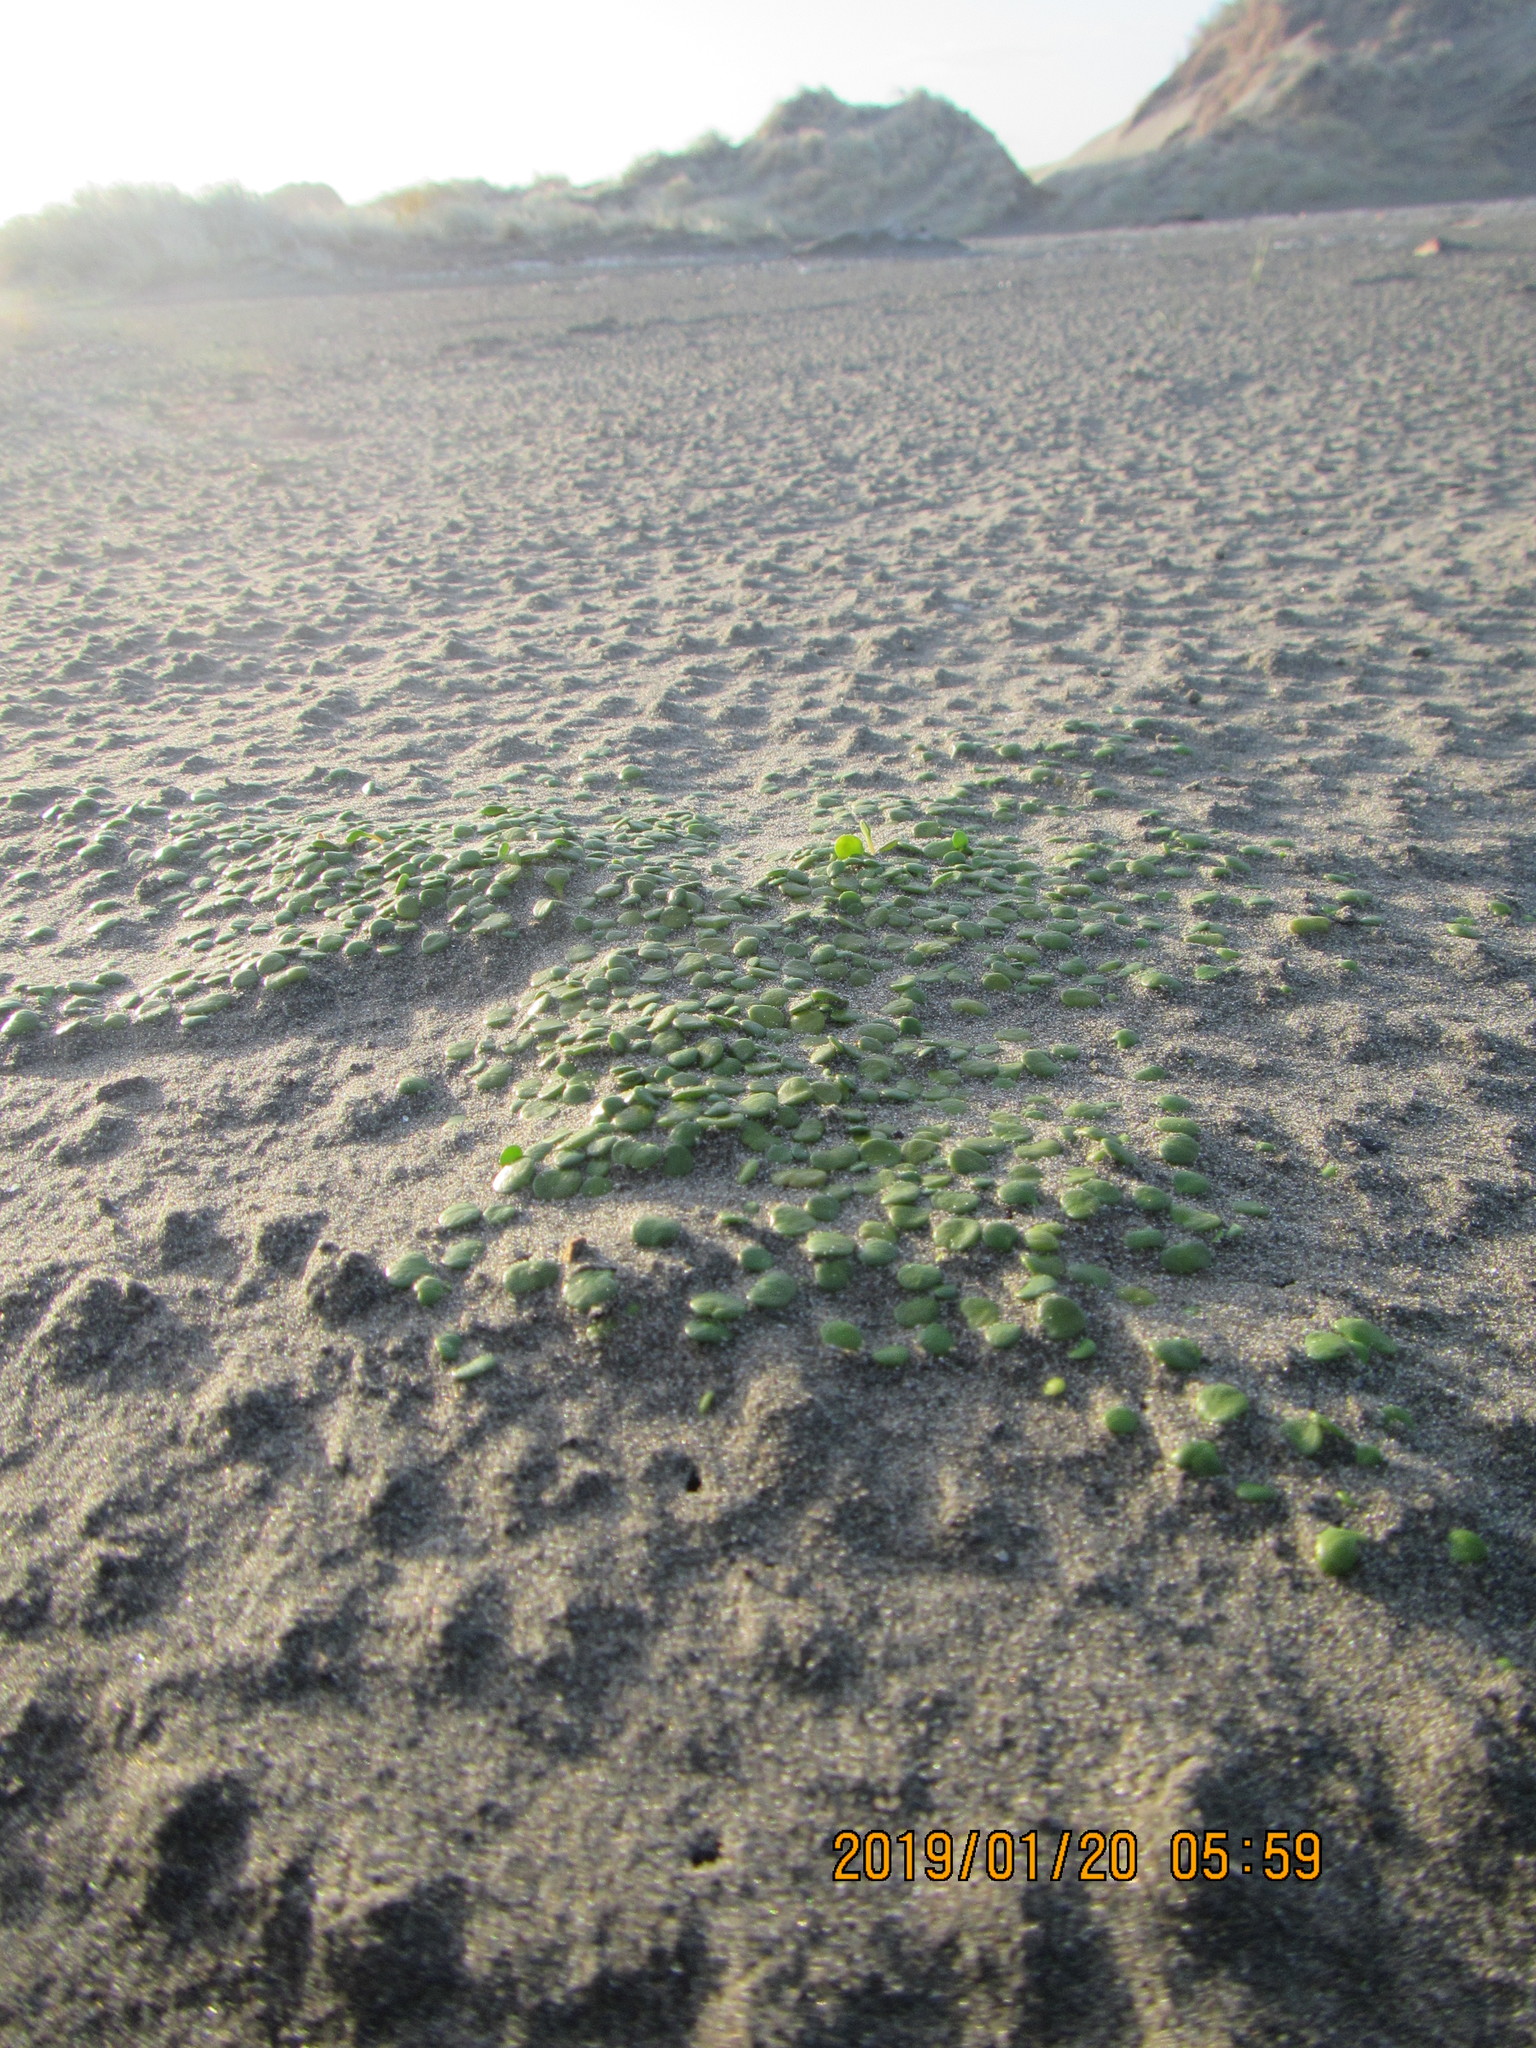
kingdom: Plantae
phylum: Tracheophyta
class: Magnoliopsida
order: Asterales
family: Goodeniaceae
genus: Goodenia
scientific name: Goodenia heenanii
